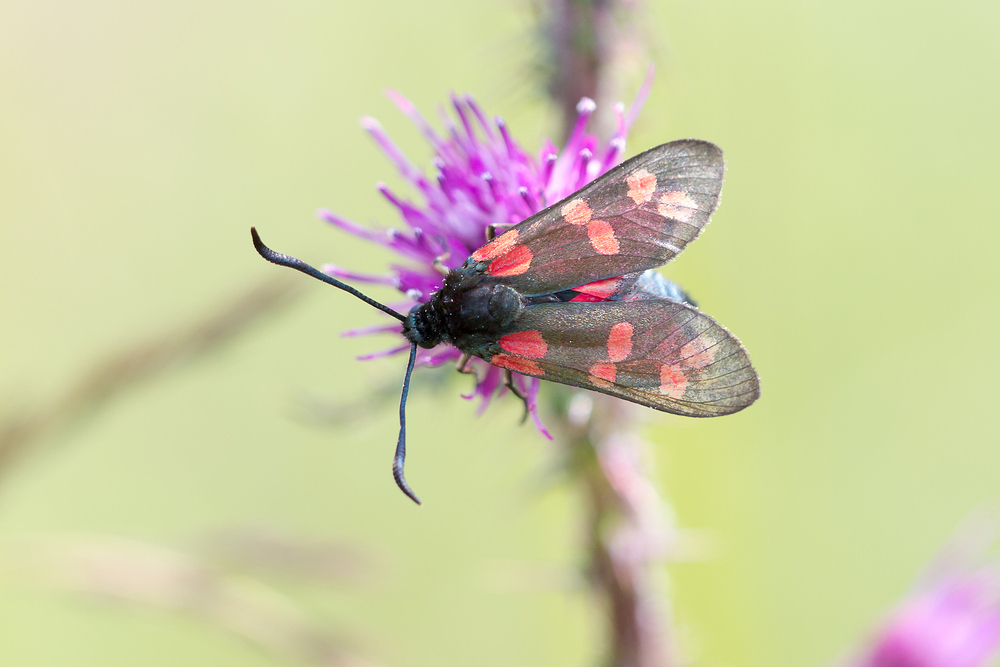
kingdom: Animalia
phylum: Arthropoda
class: Insecta
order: Lepidoptera
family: Zygaenidae
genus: Zygaena
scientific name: Zygaena filipendulae
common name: Six-spot burnet
